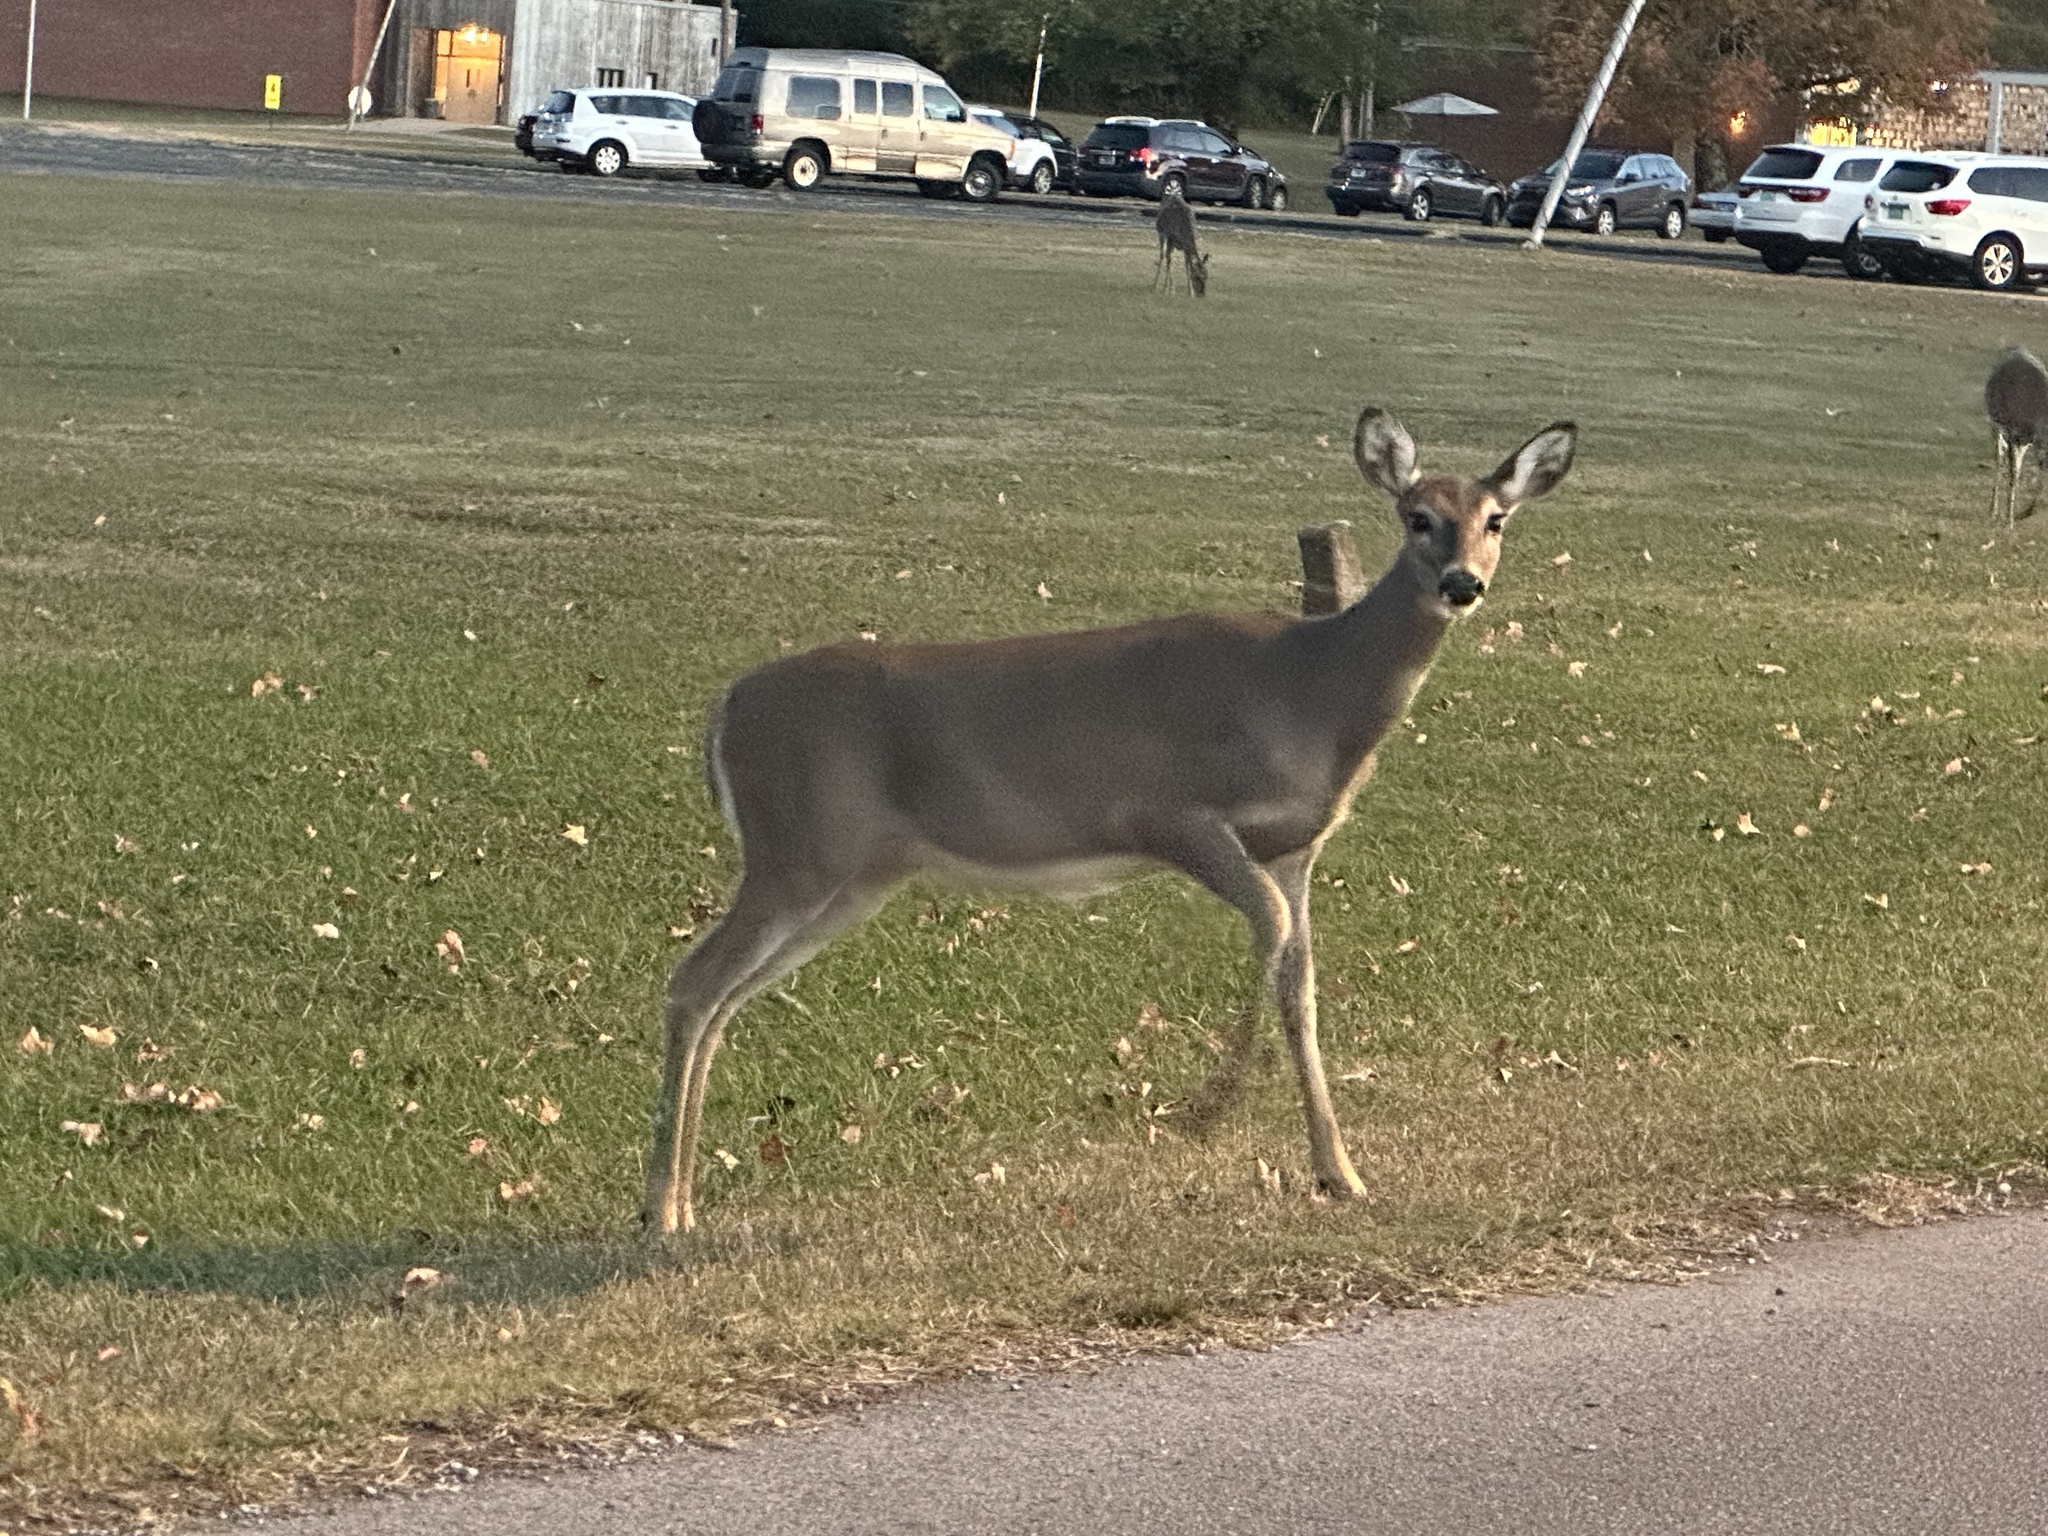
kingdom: Animalia
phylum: Chordata
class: Mammalia
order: Artiodactyla
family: Cervidae
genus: Odocoileus
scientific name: Odocoileus virginianus
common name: White-tailed deer
